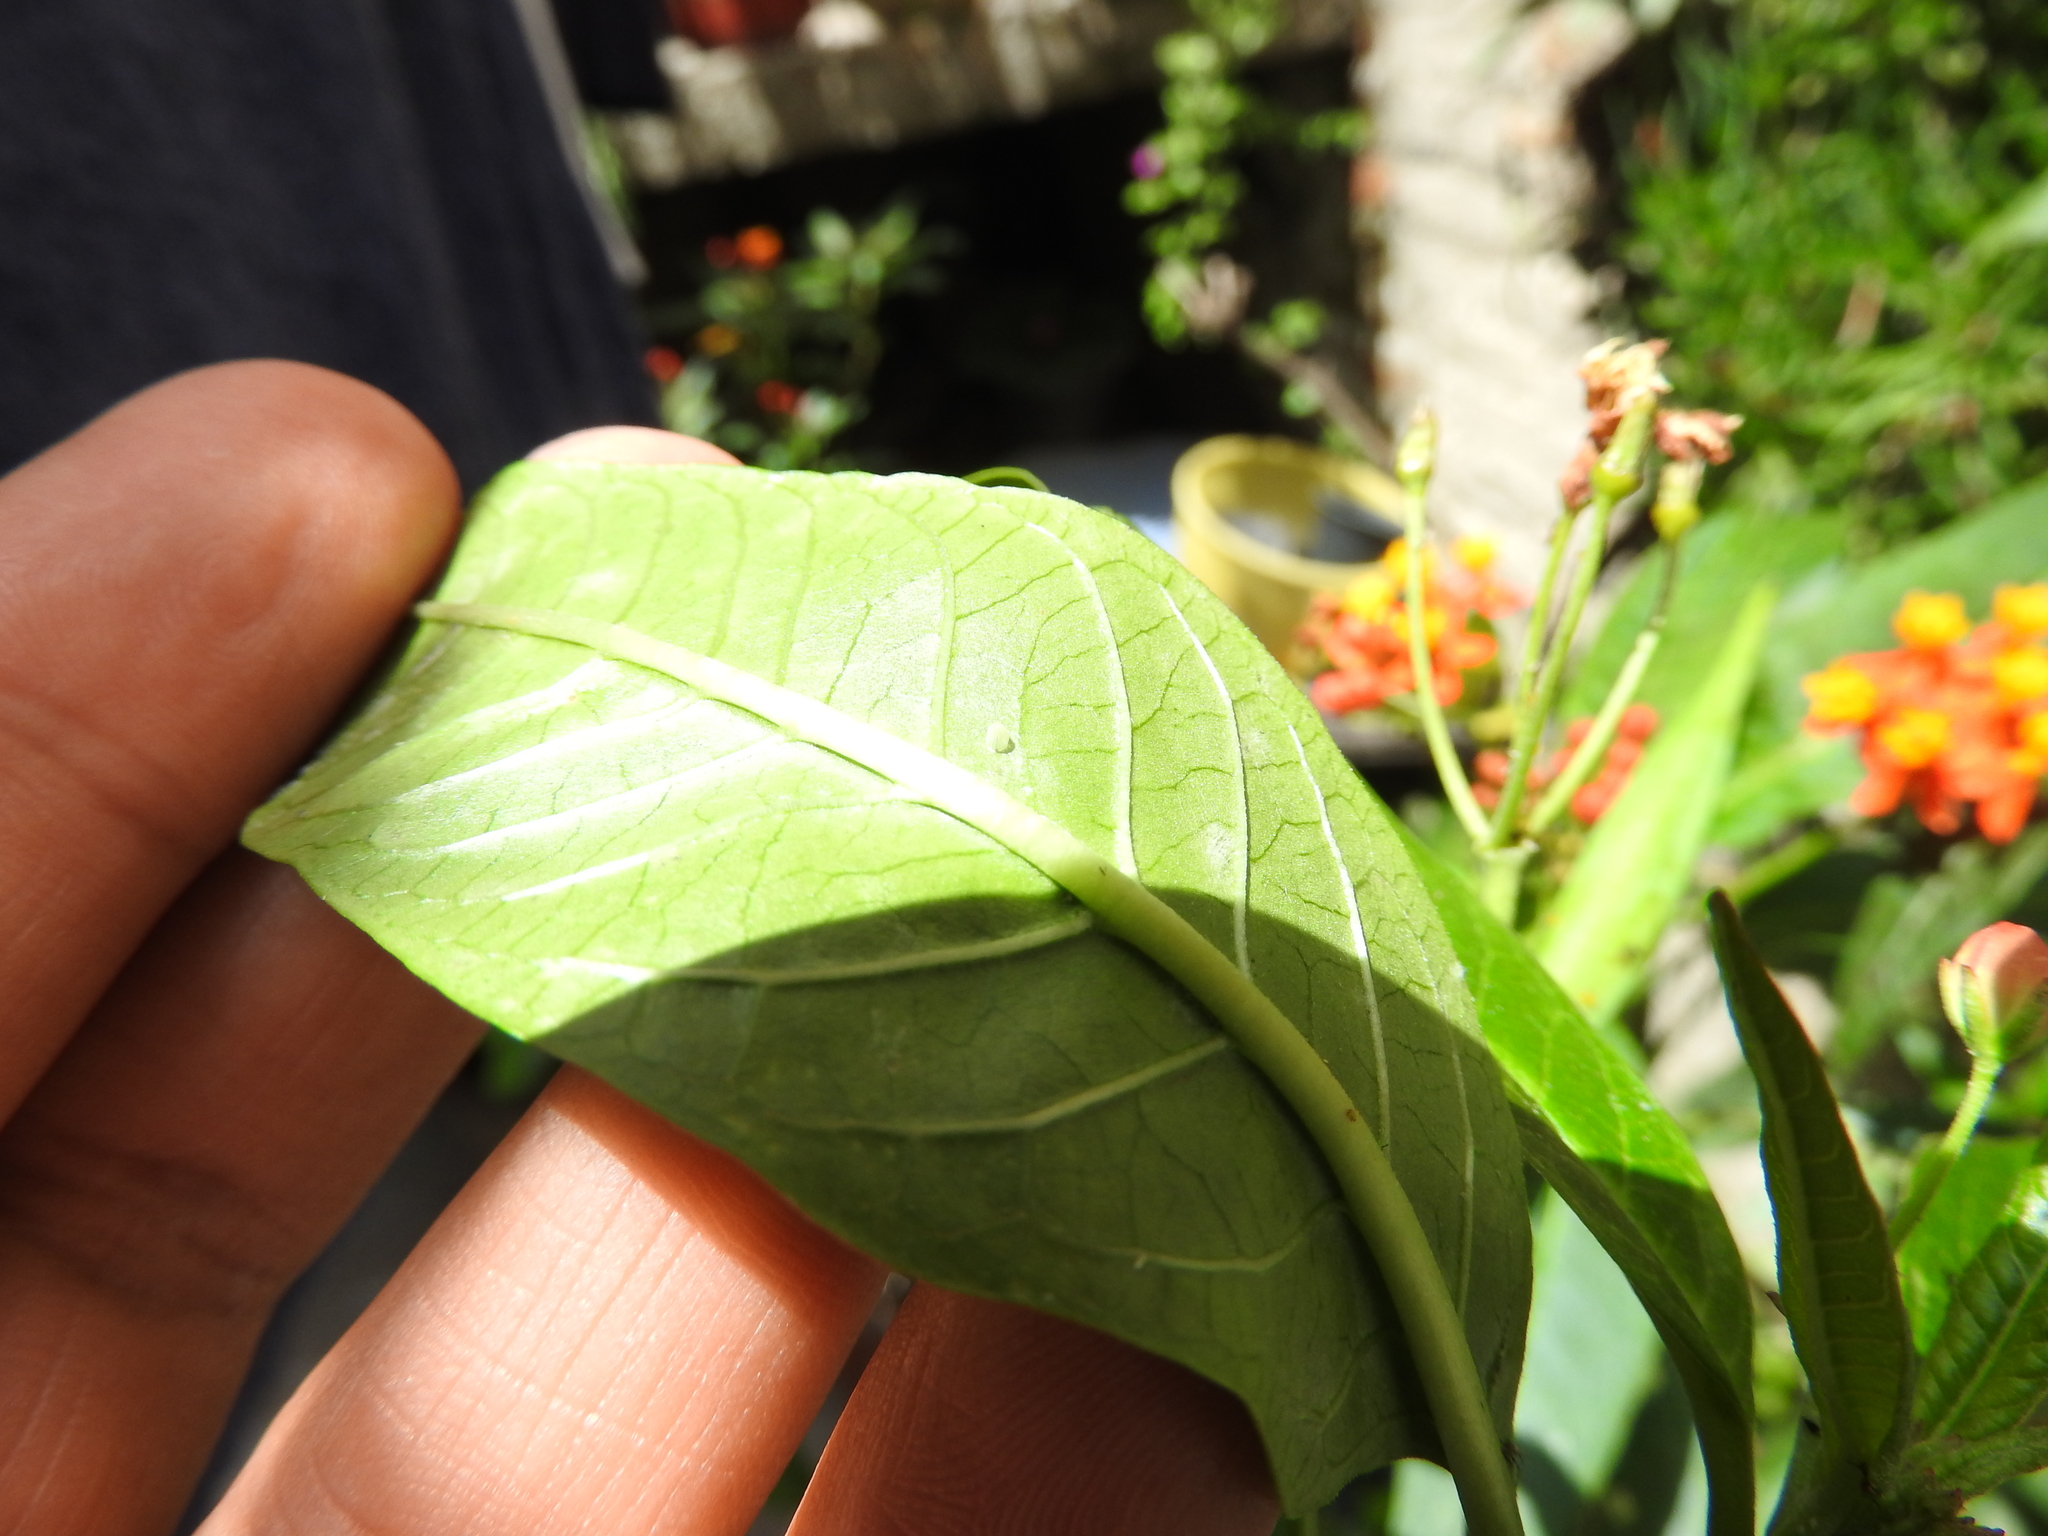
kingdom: Animalia
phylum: Arthropoda
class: Insecta
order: Lepidoptera
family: Nymphalidae
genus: Danaus
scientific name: Danaus plexippus
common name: Monarch
